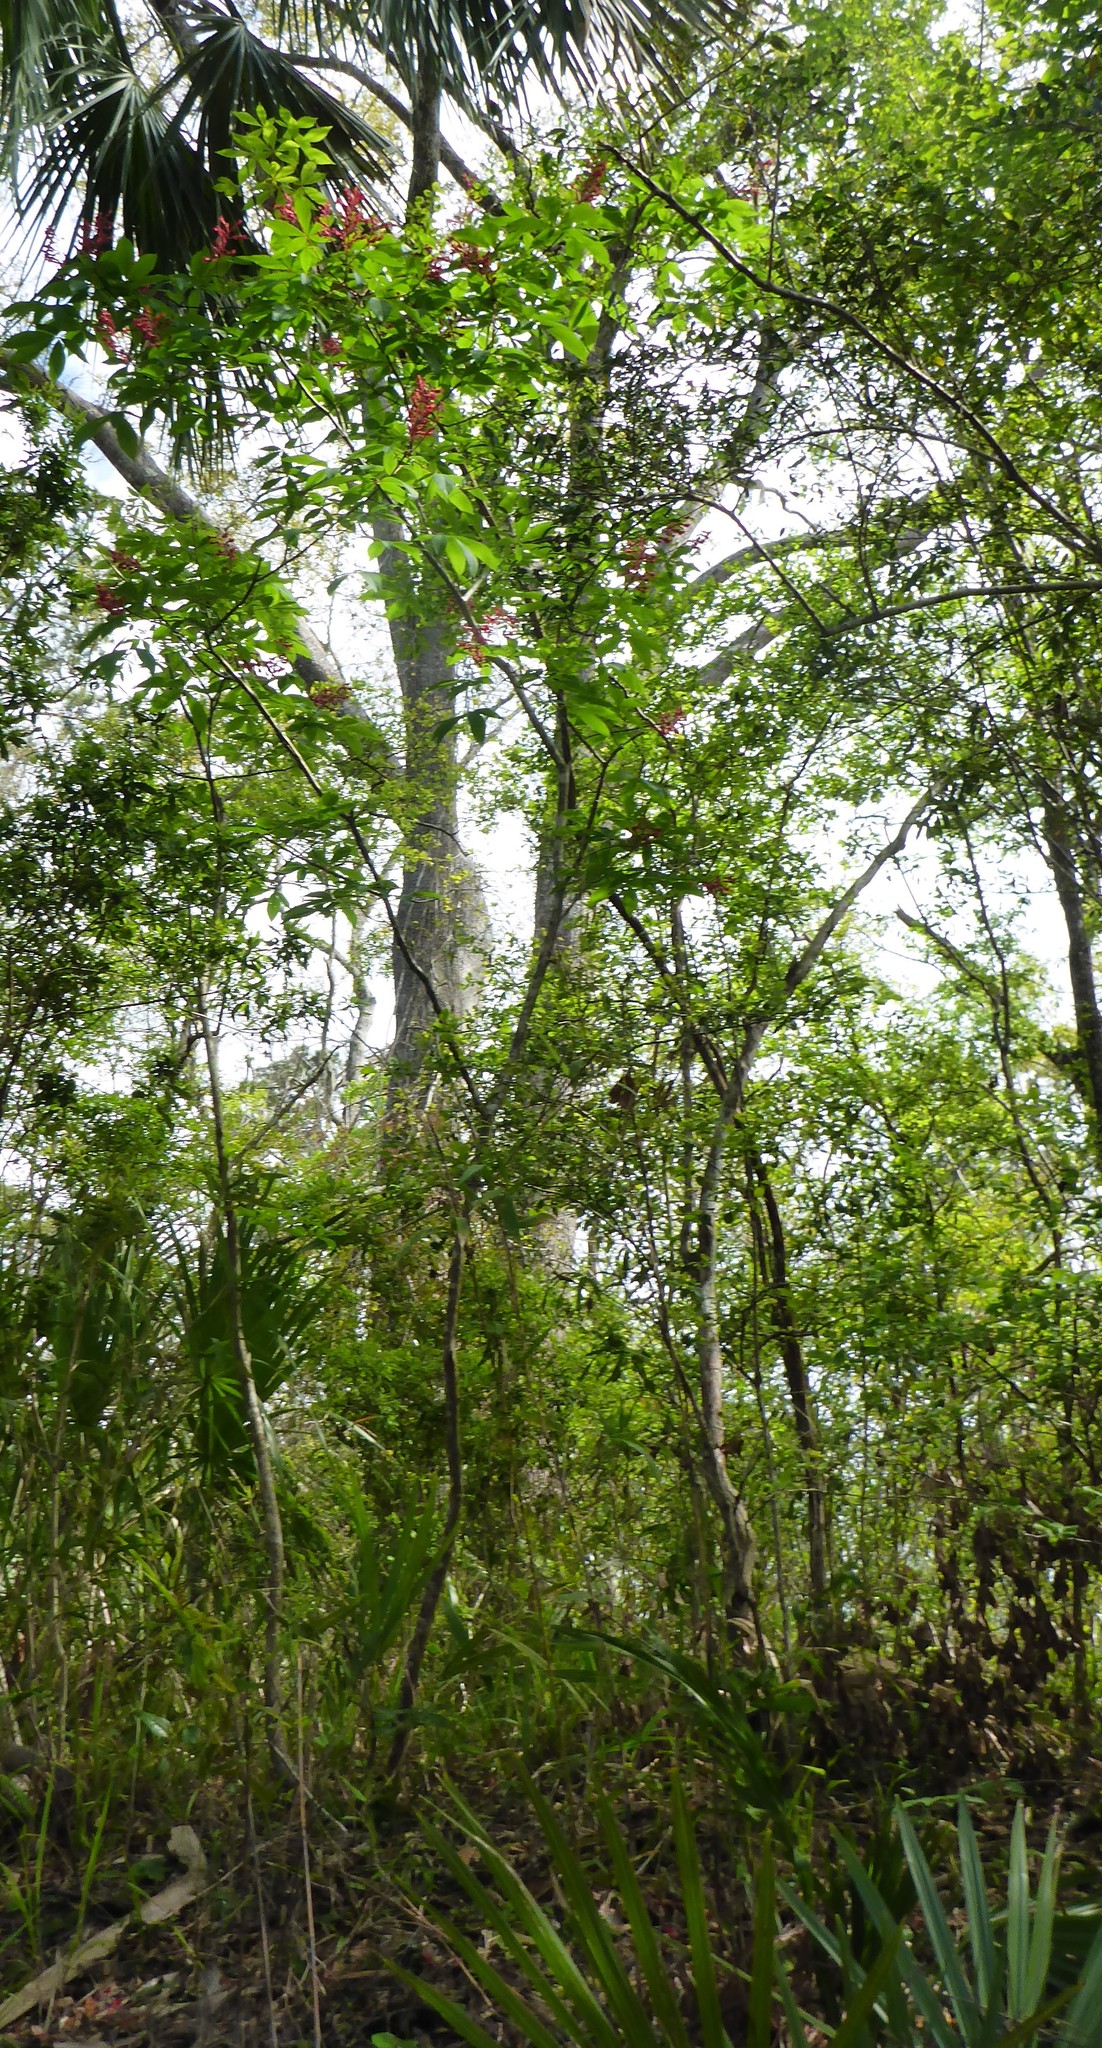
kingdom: Plantae
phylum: Tracheophyta
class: Magnoliopsida
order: Sapindales
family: Sapindaceae
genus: Aesculus
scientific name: Aesculus pavia
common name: Red buckeye
